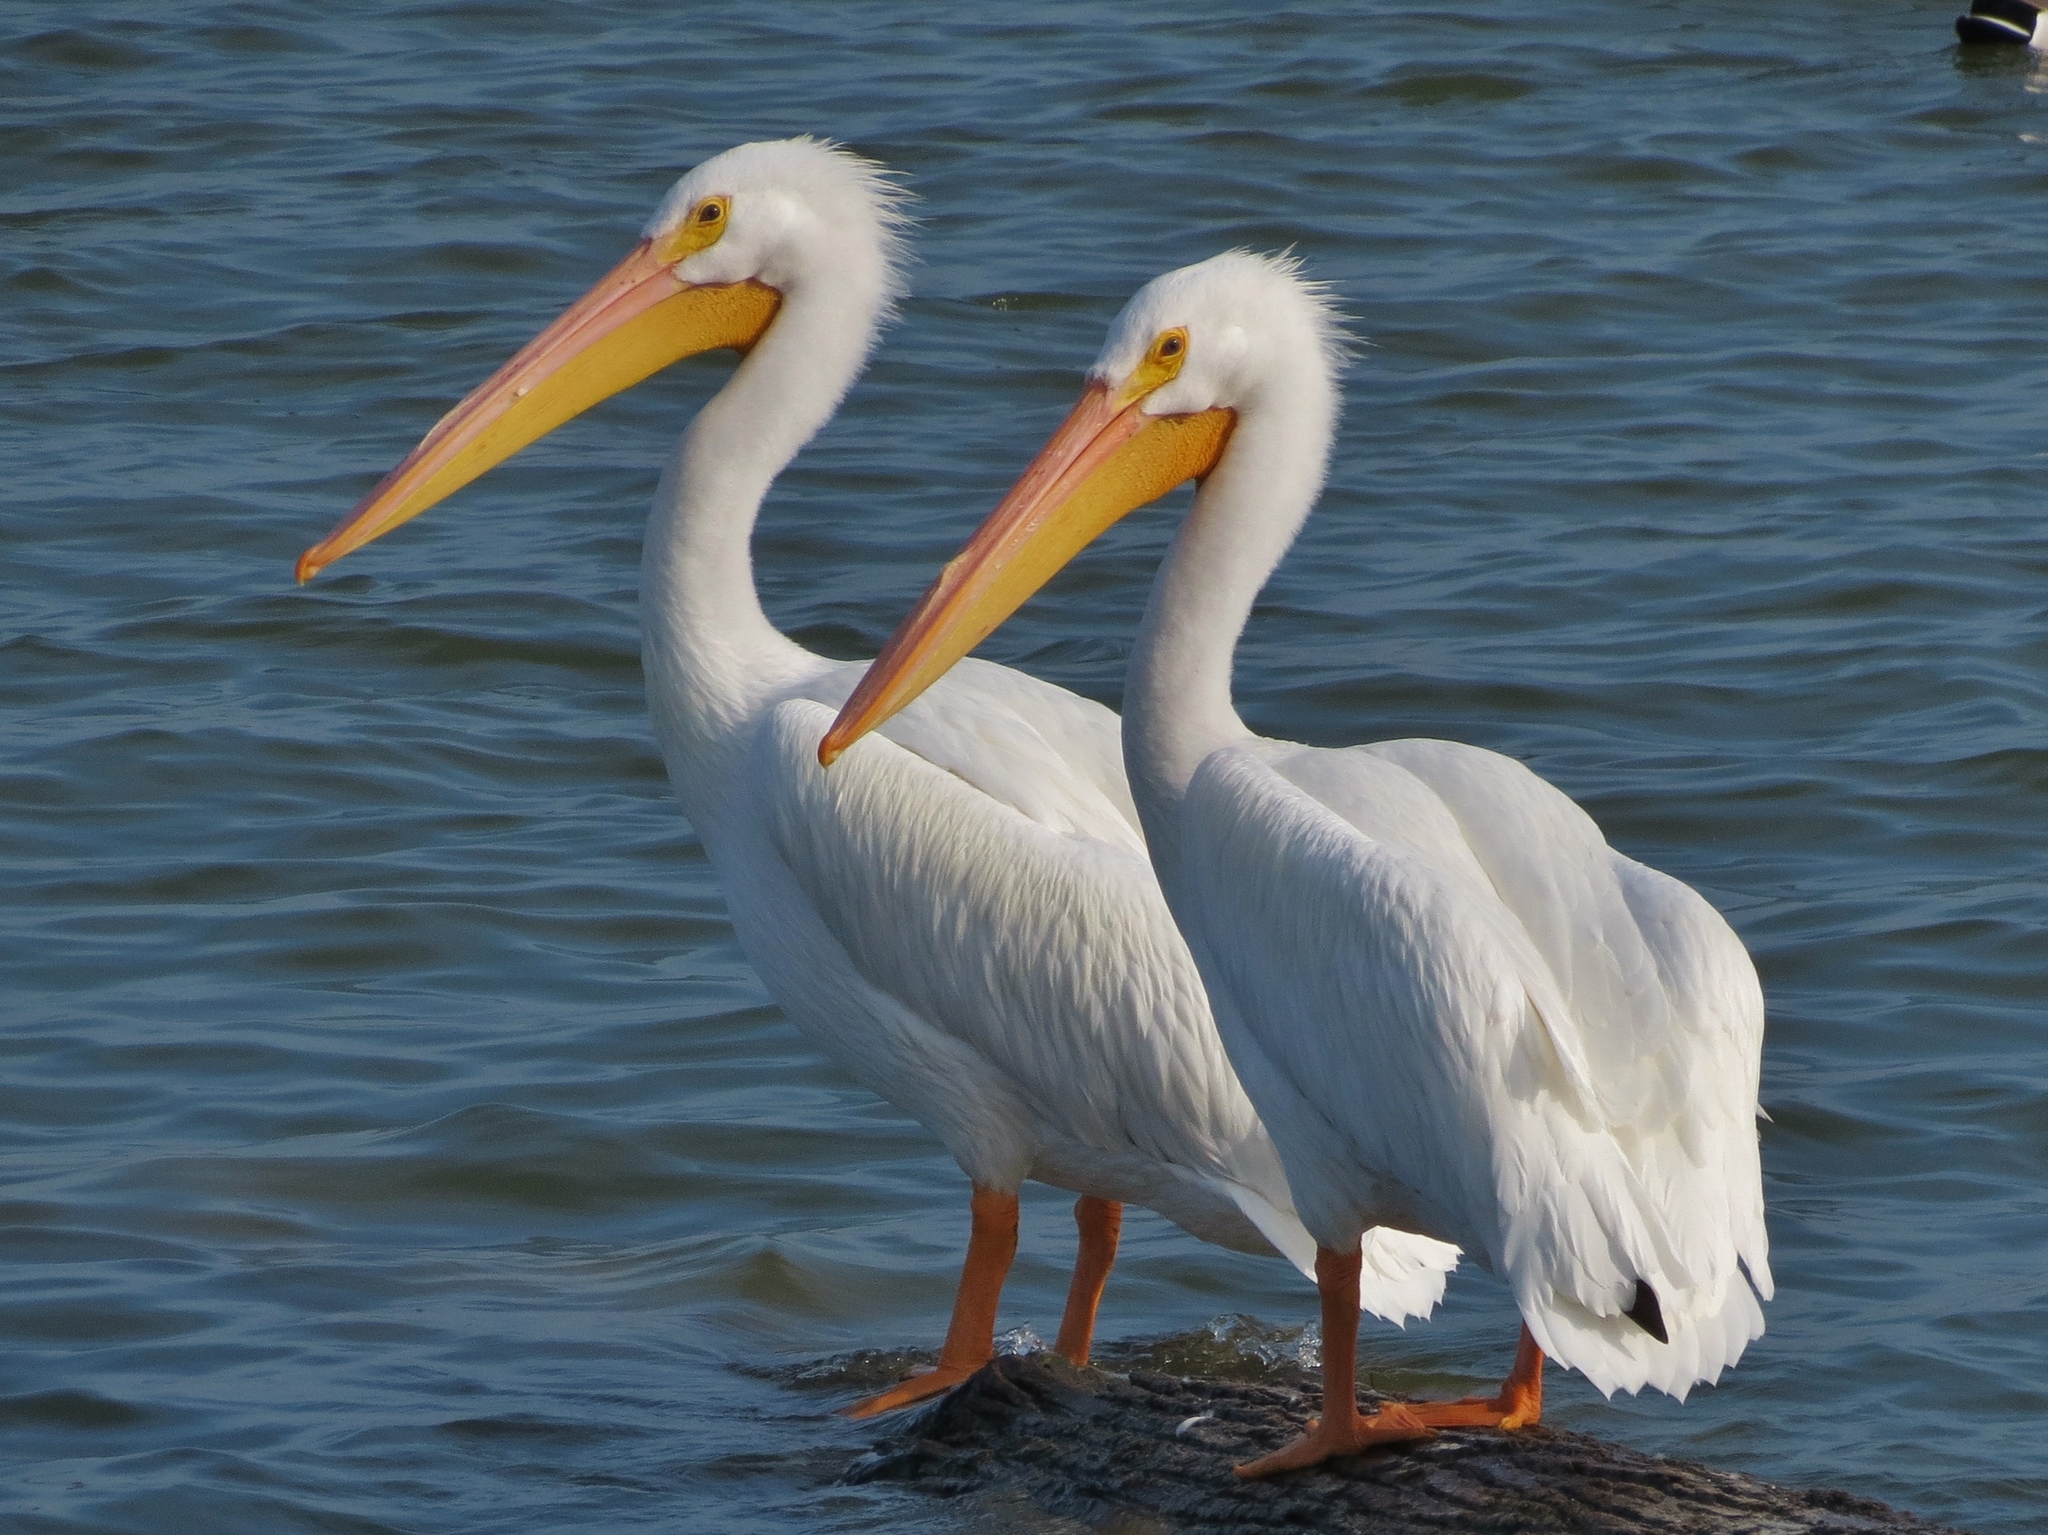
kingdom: Animalia
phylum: Chordata
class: Aves
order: Pelecaniformes
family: Pelecanidae
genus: Pelecanus
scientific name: Pelecanus erythrorhynchos
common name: American white pelican
